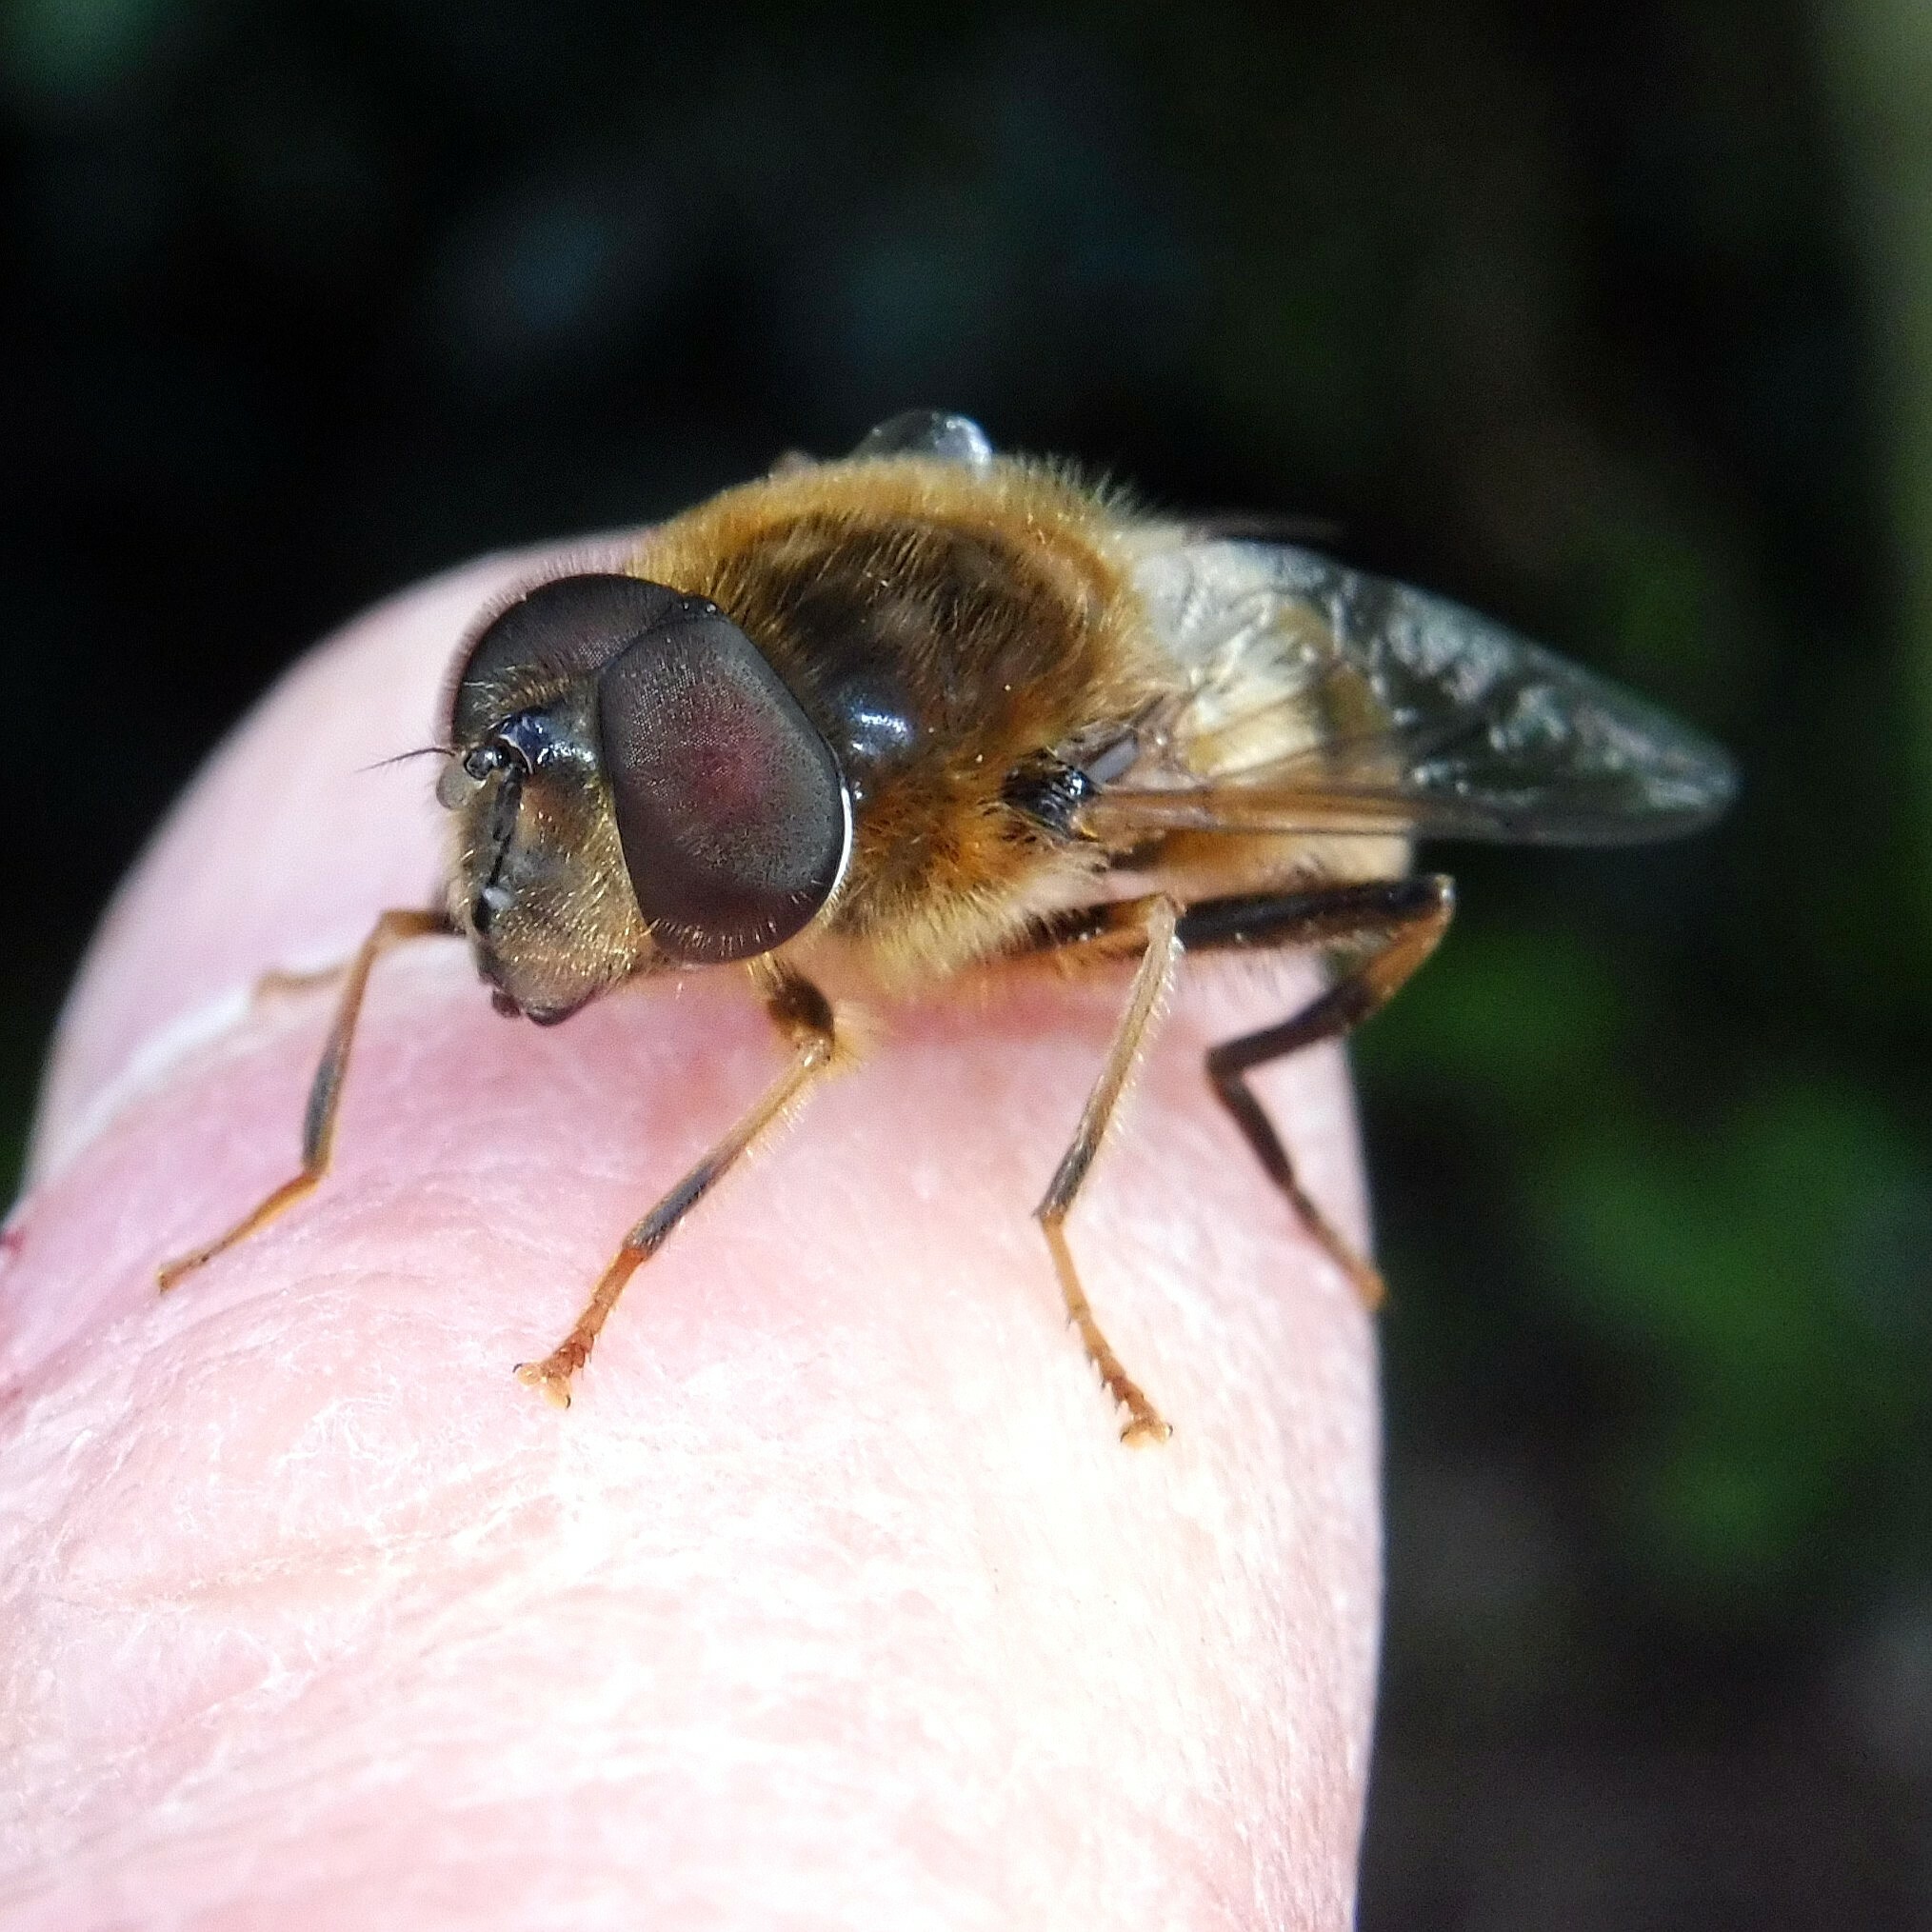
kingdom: Animalia
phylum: Arthropoda
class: Insecta
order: Diptera
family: Syrphidae
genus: Eristalis
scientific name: Eristalis pertinax
